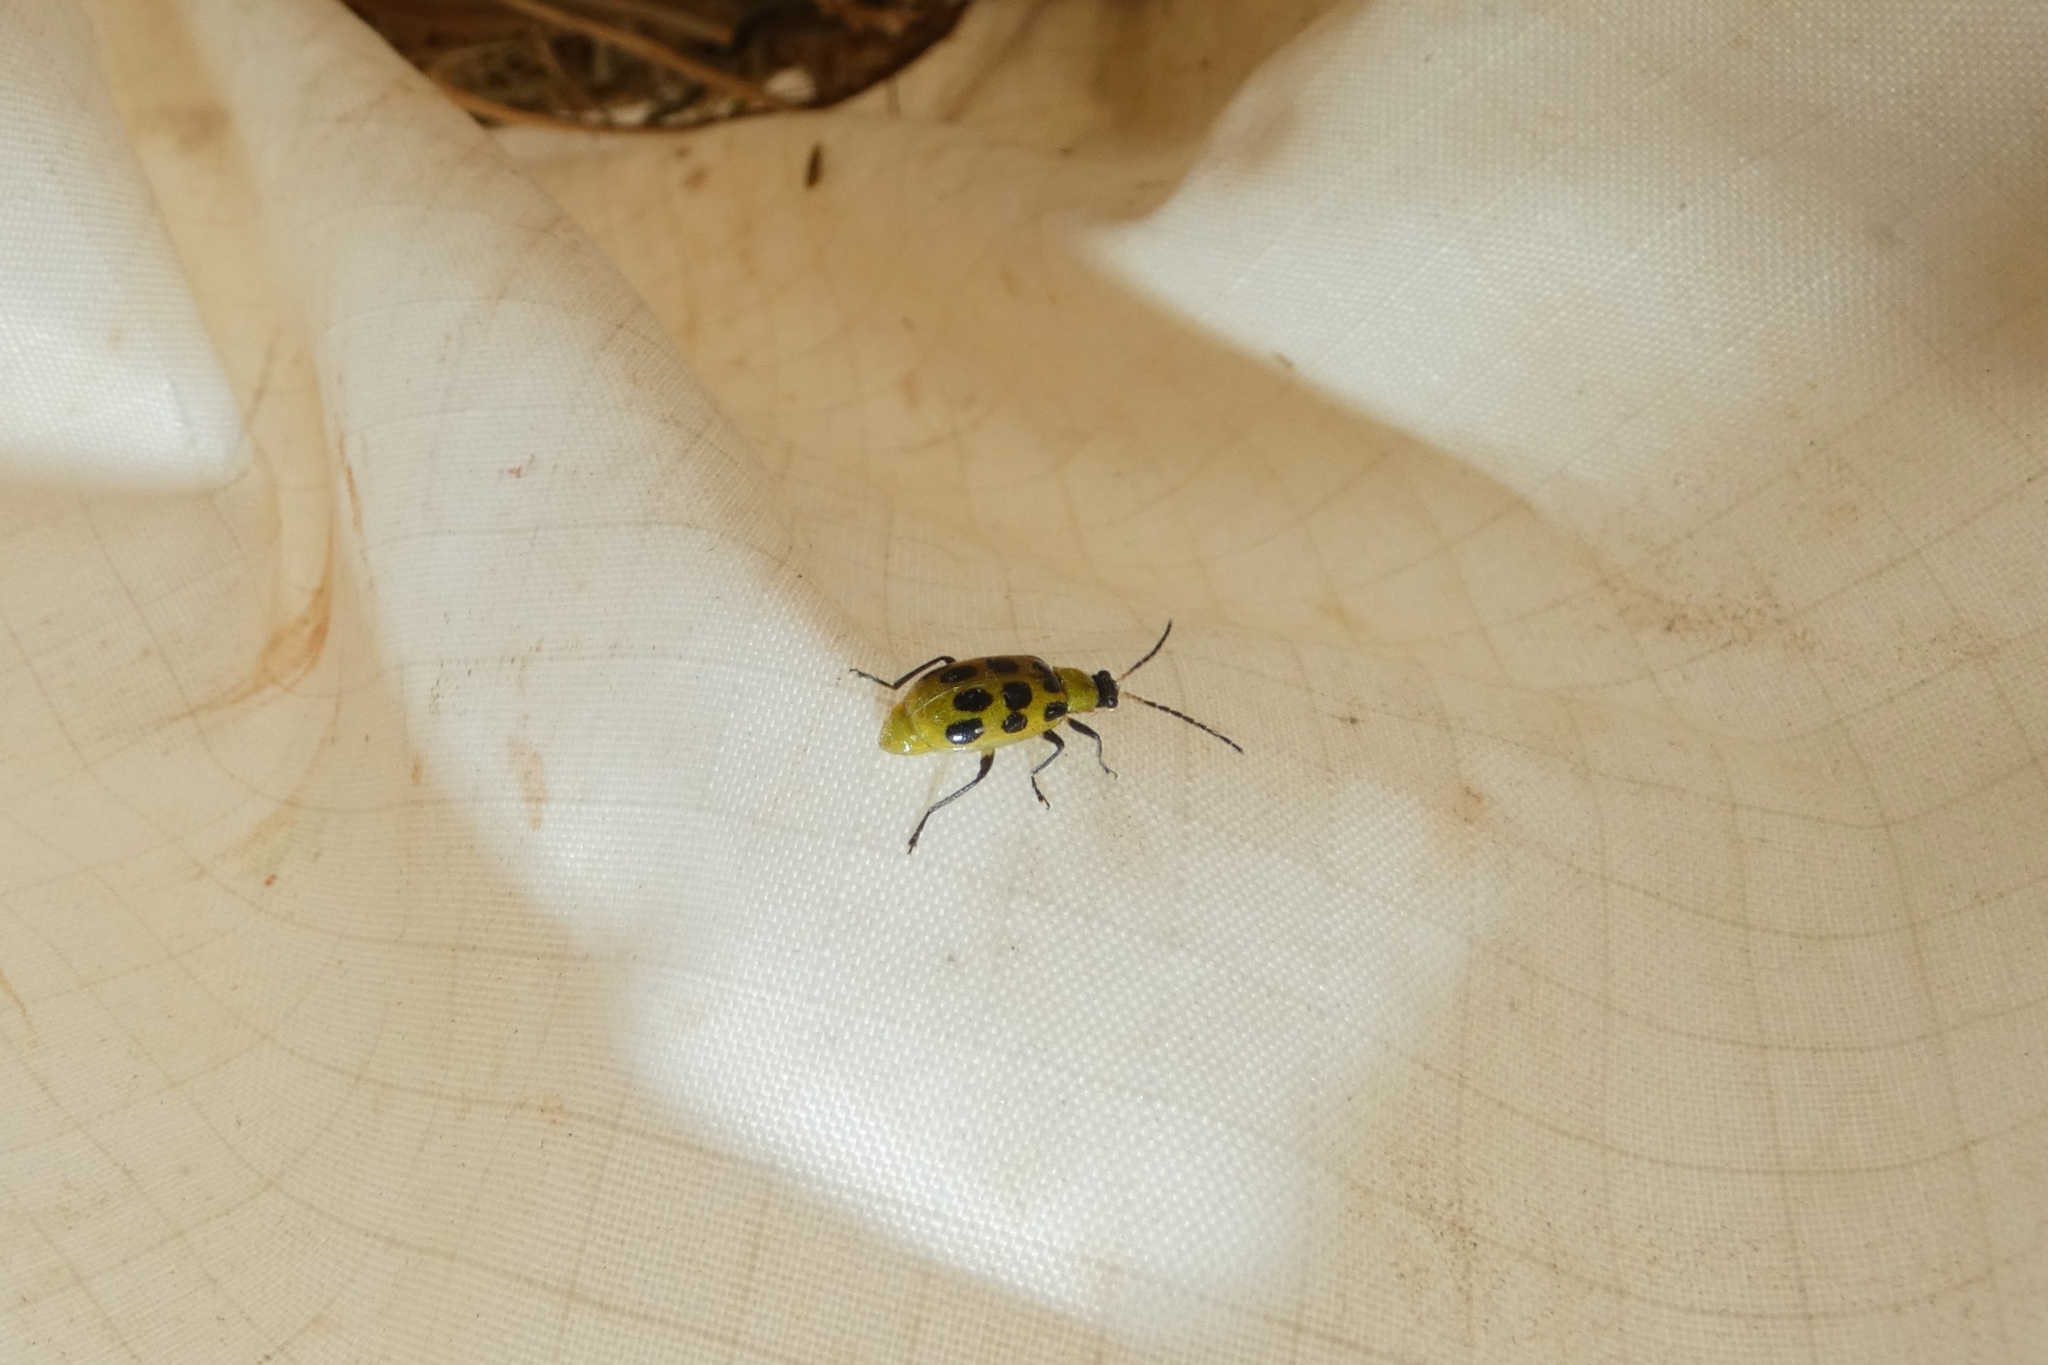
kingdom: Animalia
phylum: Arthropoda
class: Insecta
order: Coleoptera
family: Chrysomelidae
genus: Diabrotica
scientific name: Diabrotica undecimpunctata
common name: Spotted cucumber beetle
